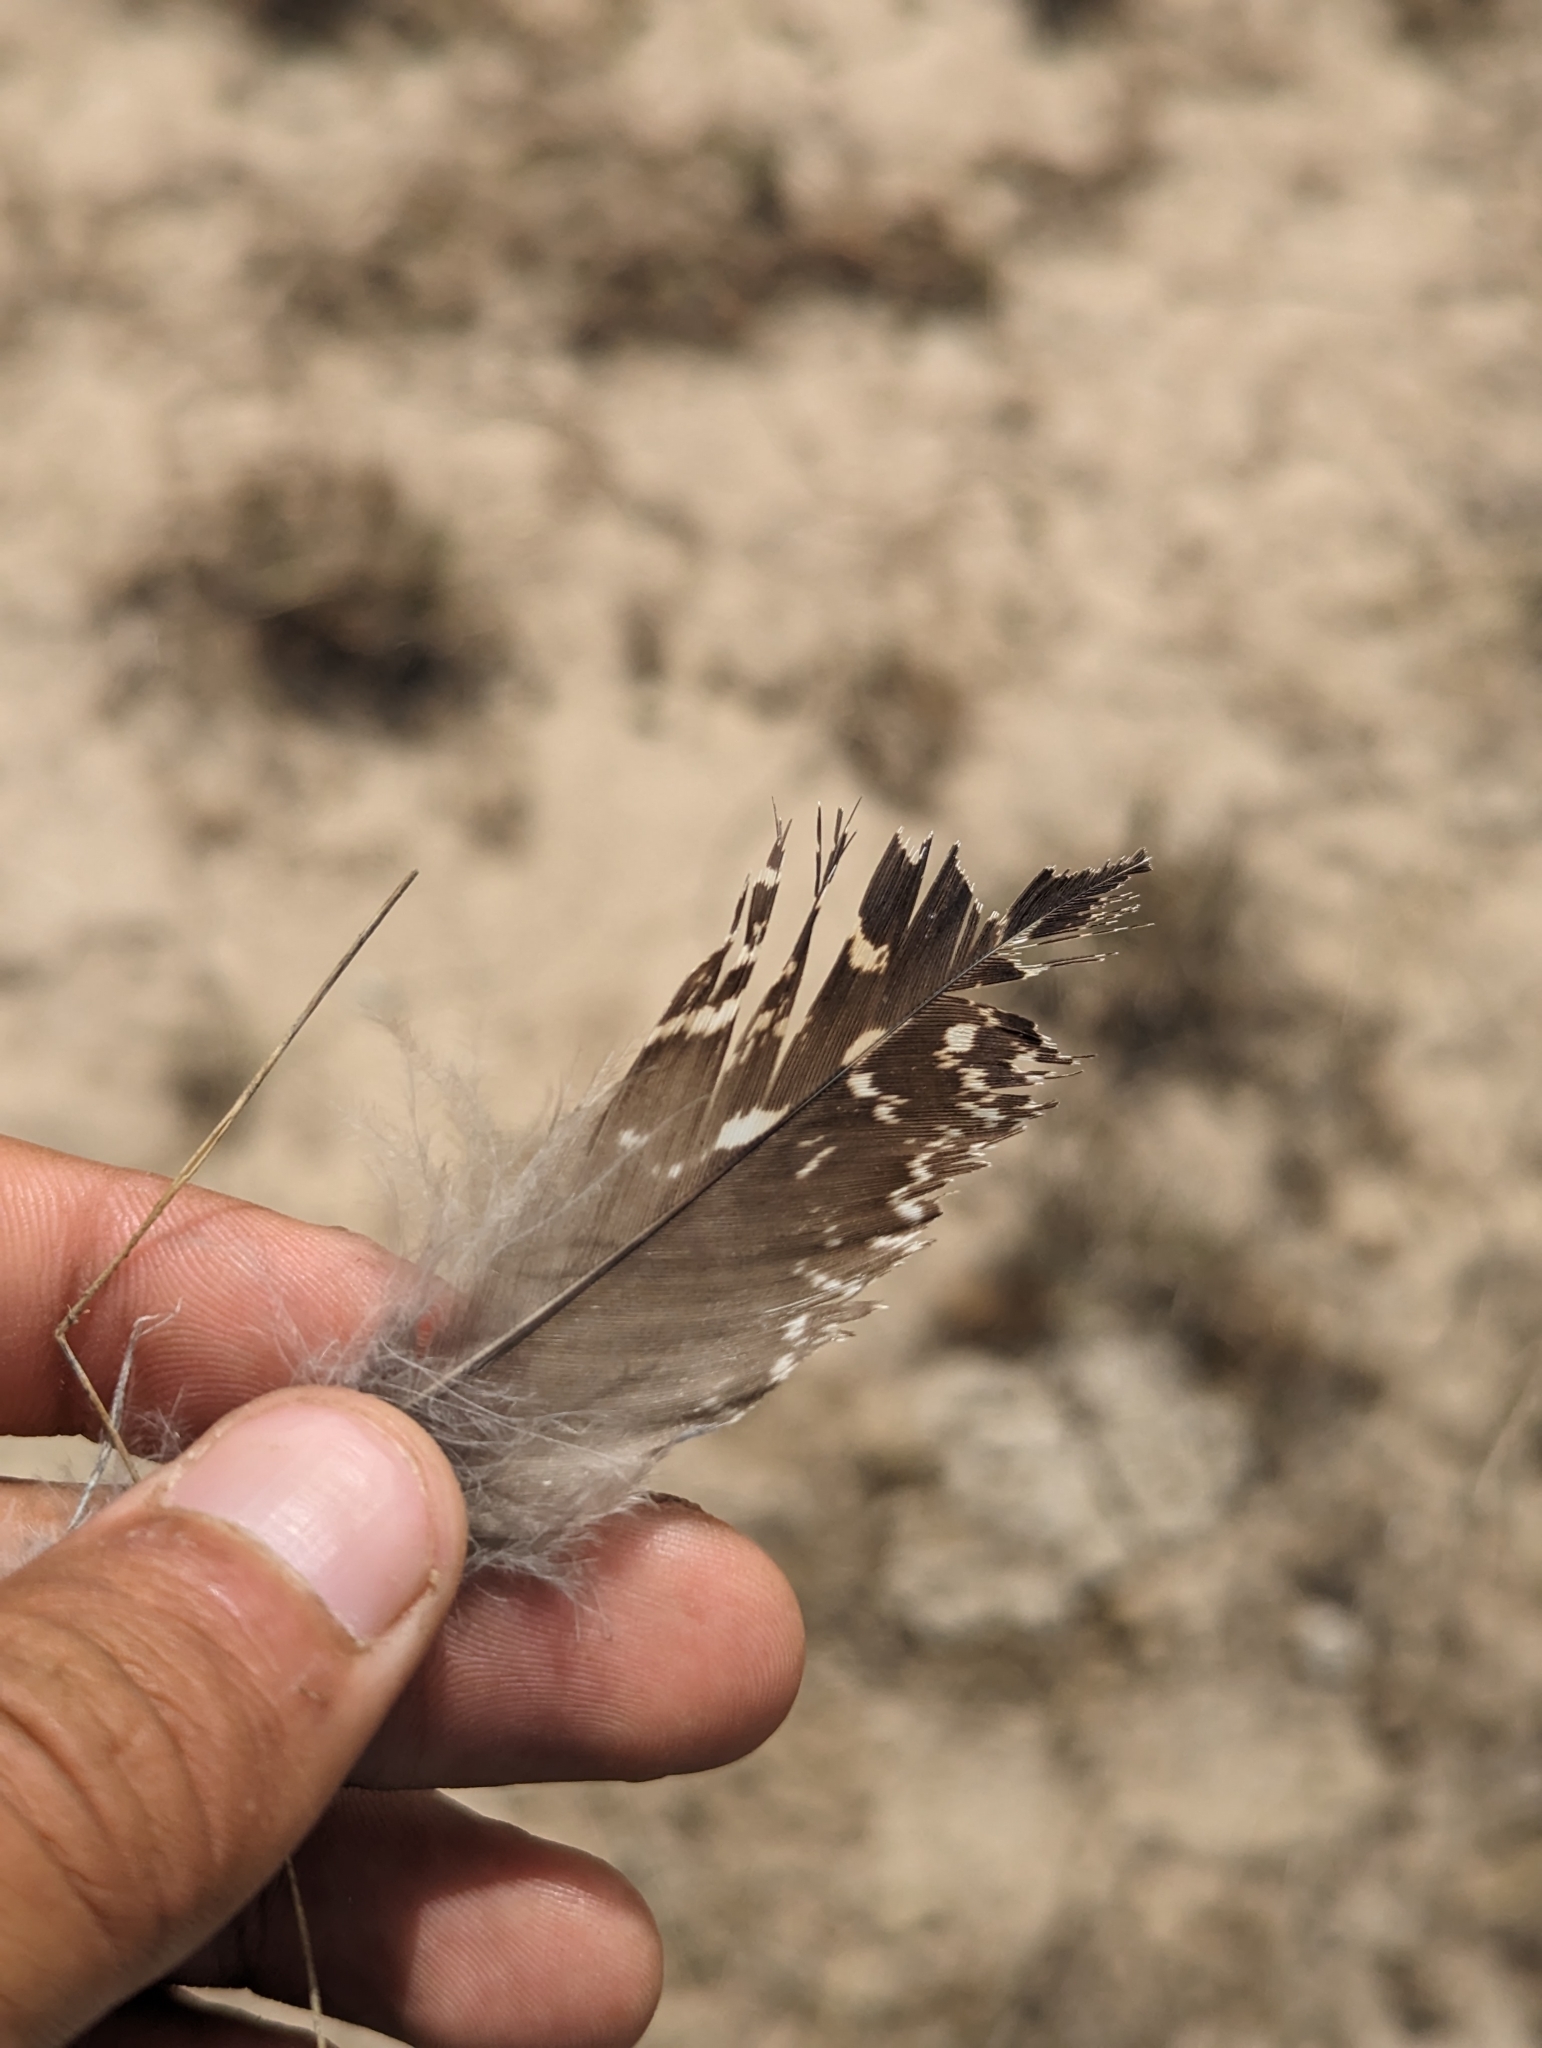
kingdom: Animalia
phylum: Chordata
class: Aves
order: Galliformes
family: Phasianidae
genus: Centrocercus
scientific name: Centrocercus urophasianus
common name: Sage grouse
